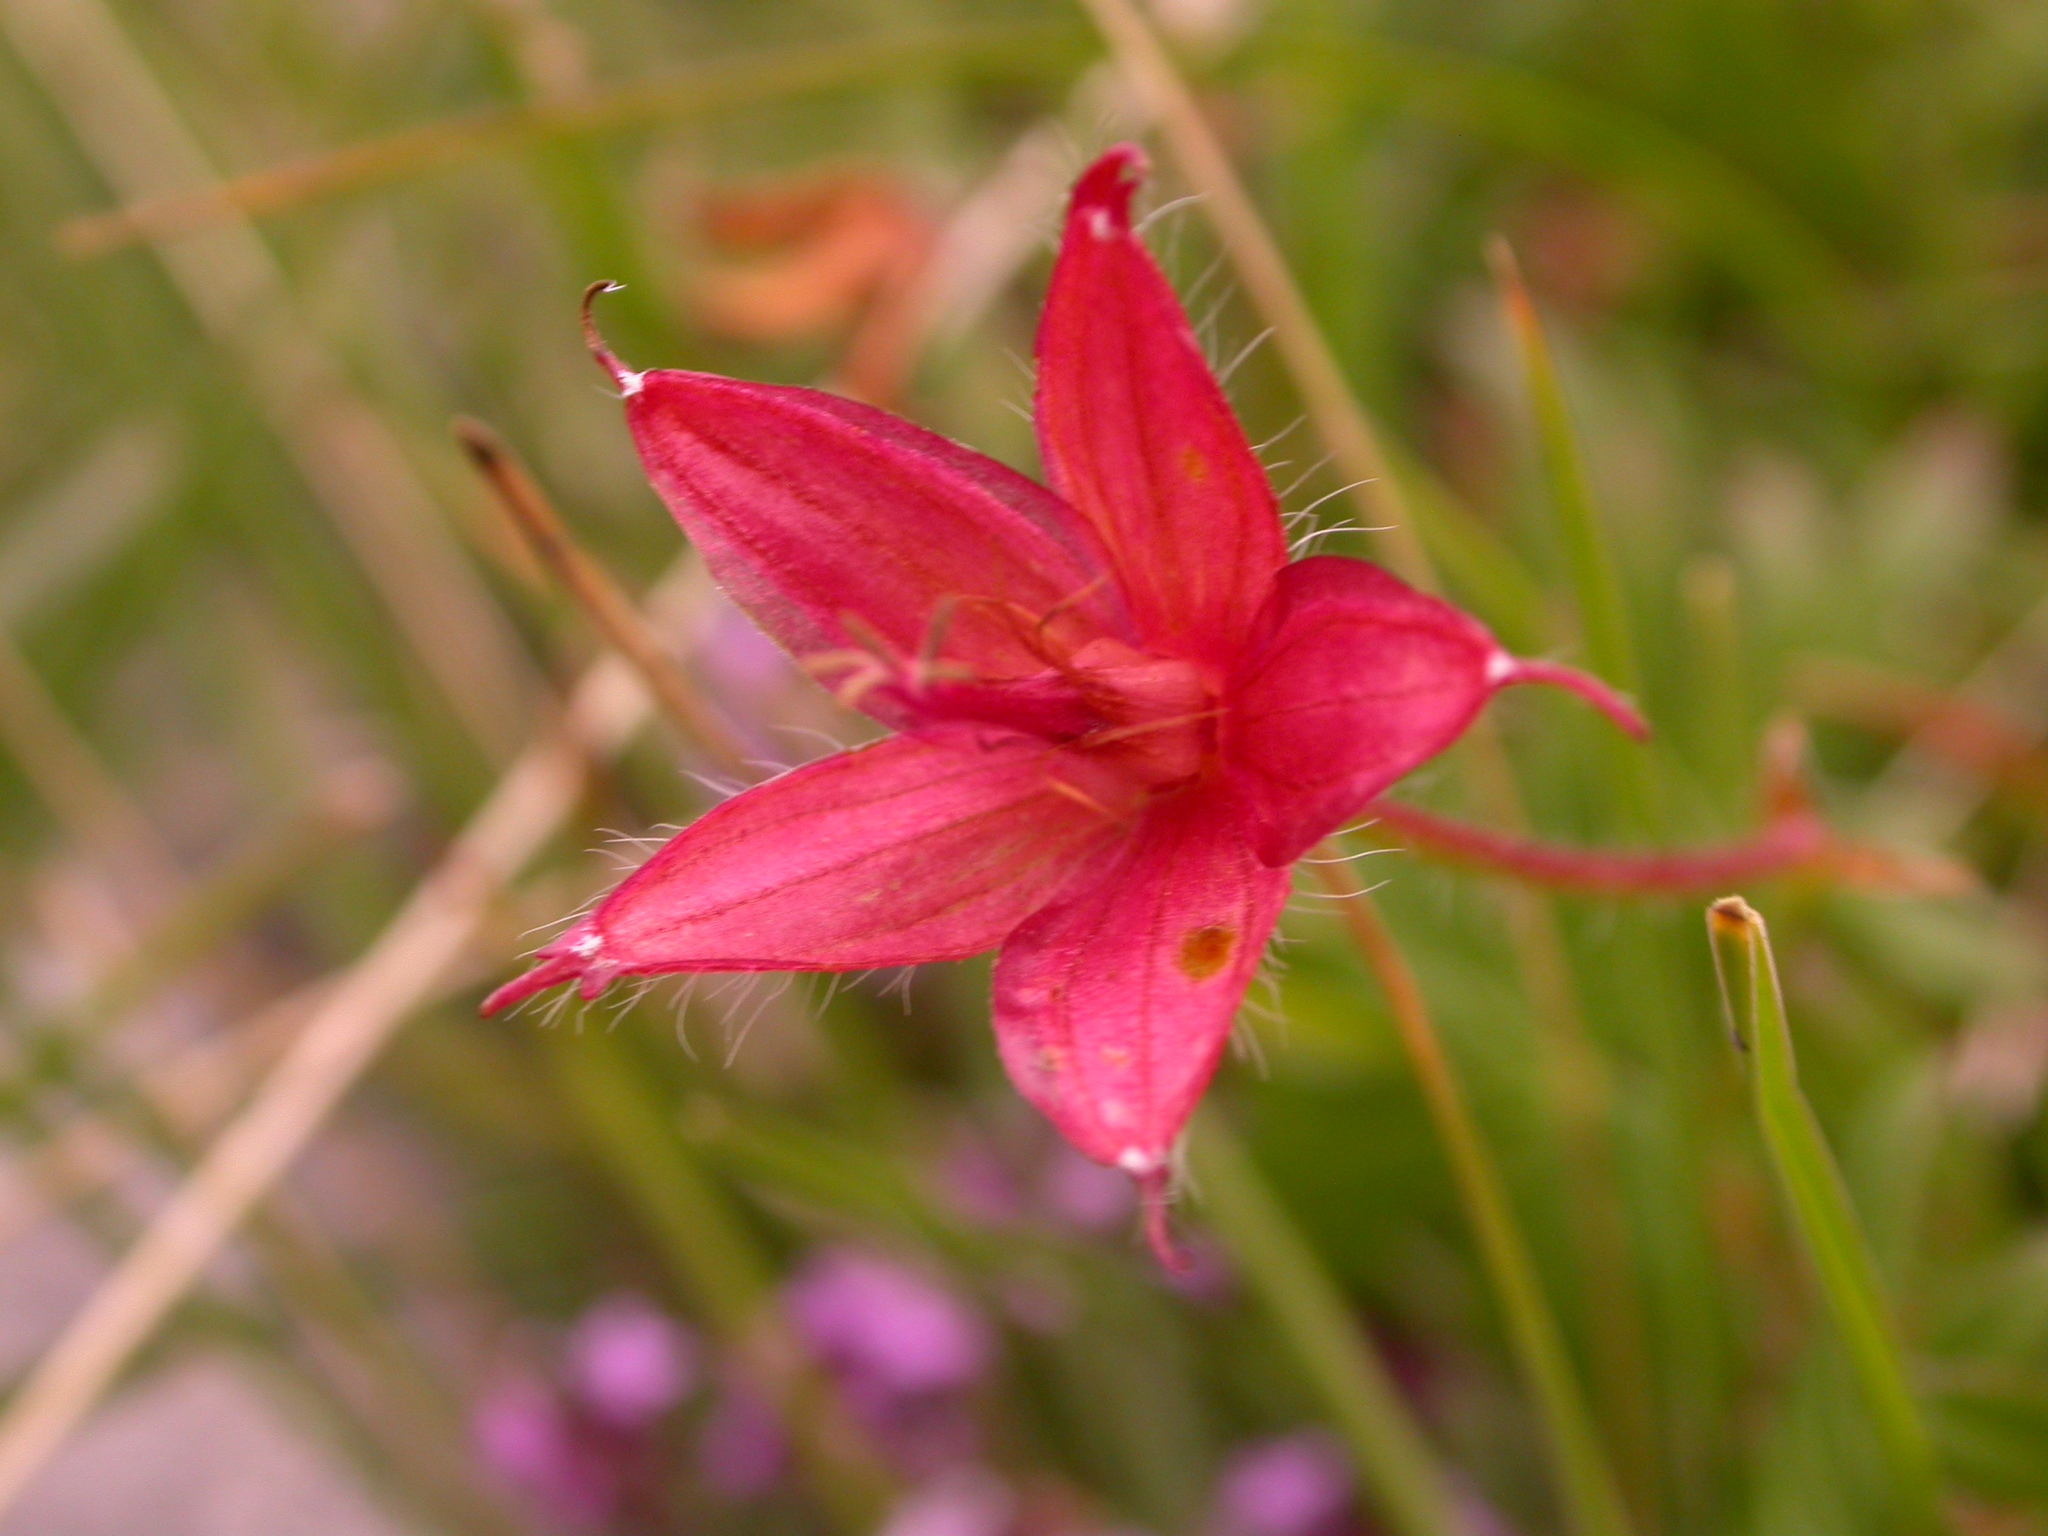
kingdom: Plantae
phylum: Tracheophyta
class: Magnoliopsida
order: Geraniales
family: Geraniaceae
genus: Geranium
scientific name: Geranium sanguineum
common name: Bloody crane's-bill
